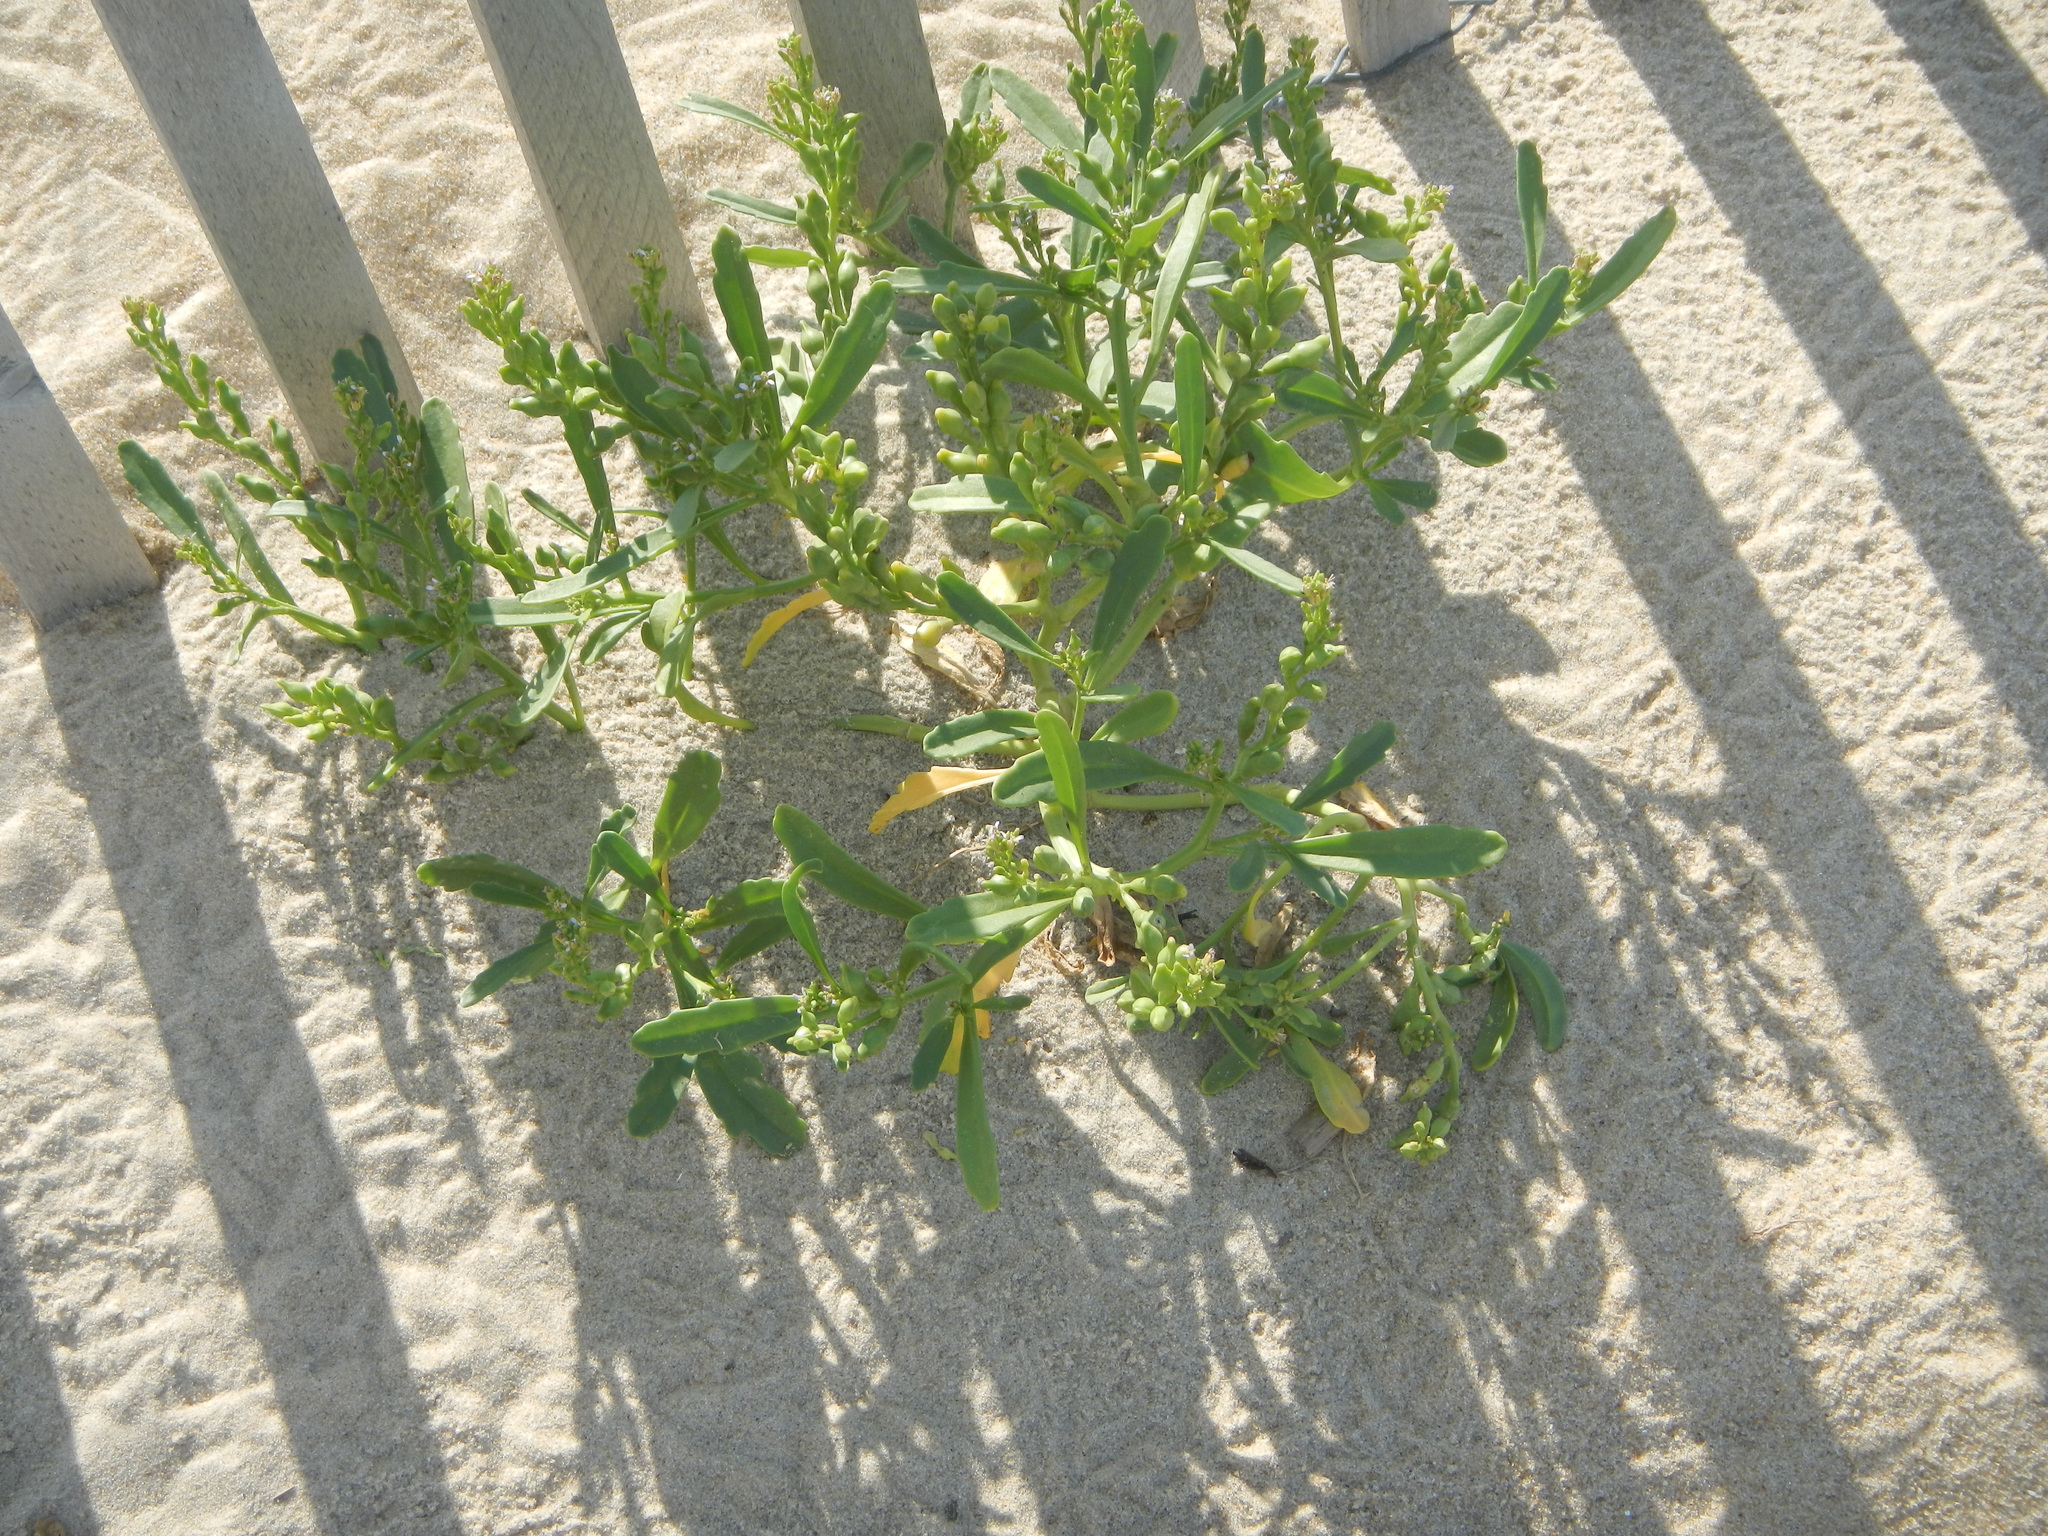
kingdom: Plantae
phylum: Tracheophyta
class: Magnoliopsida
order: Brassicales
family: Brassicaceae
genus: Cakile
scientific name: Cakile edentula
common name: American sea rocket
